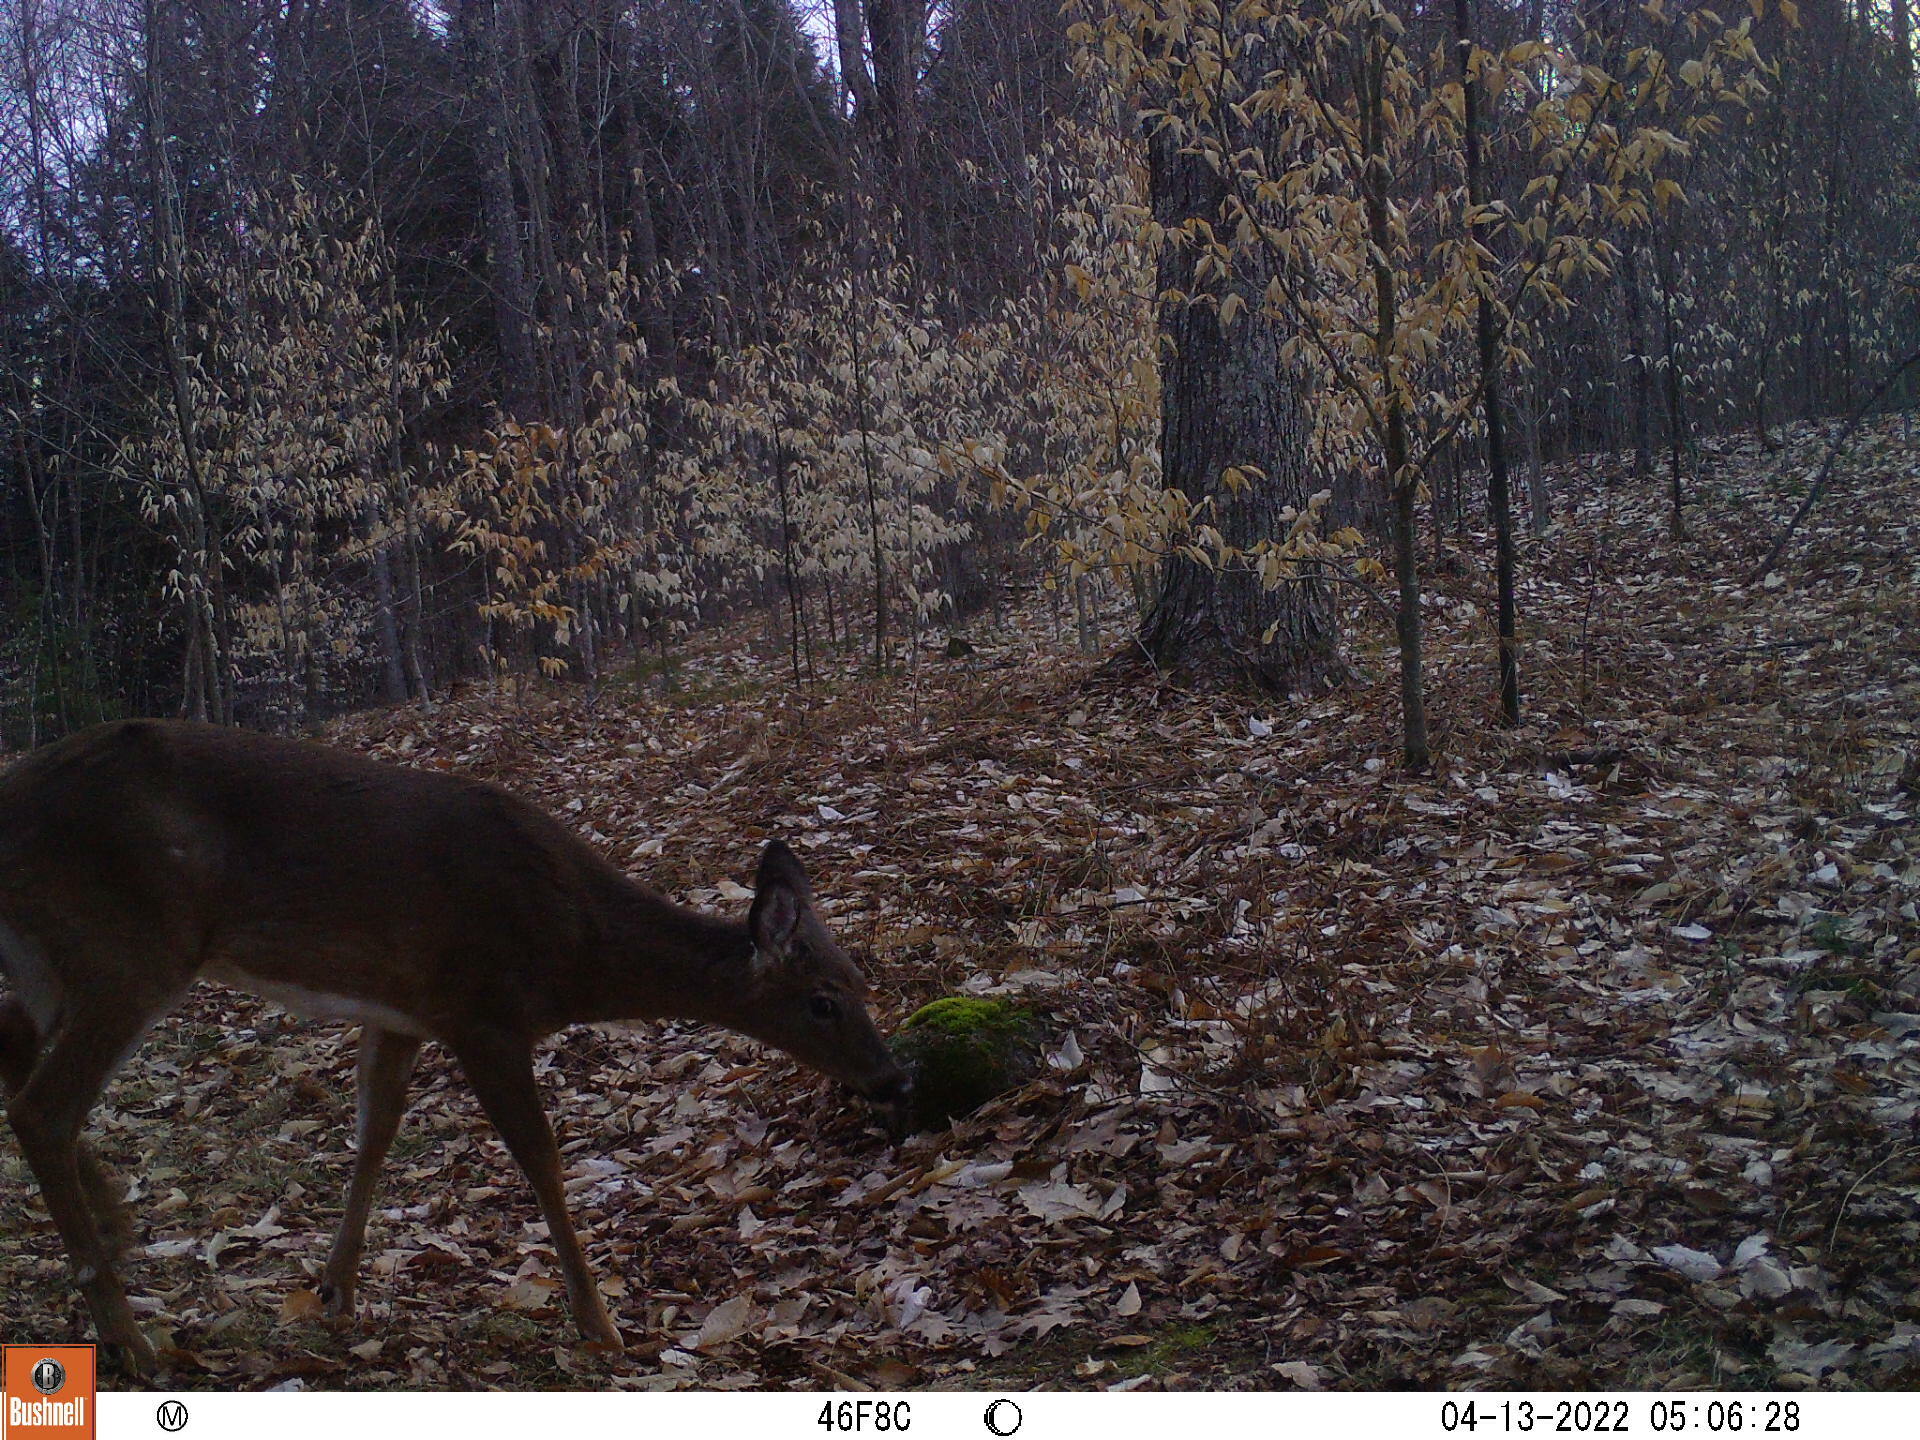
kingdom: Animalia
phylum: Chordata
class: Mammalia
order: Artiodactyla
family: Cervidae
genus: Odocoileus
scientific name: Odocoileus virginianus
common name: White-tailed deer
